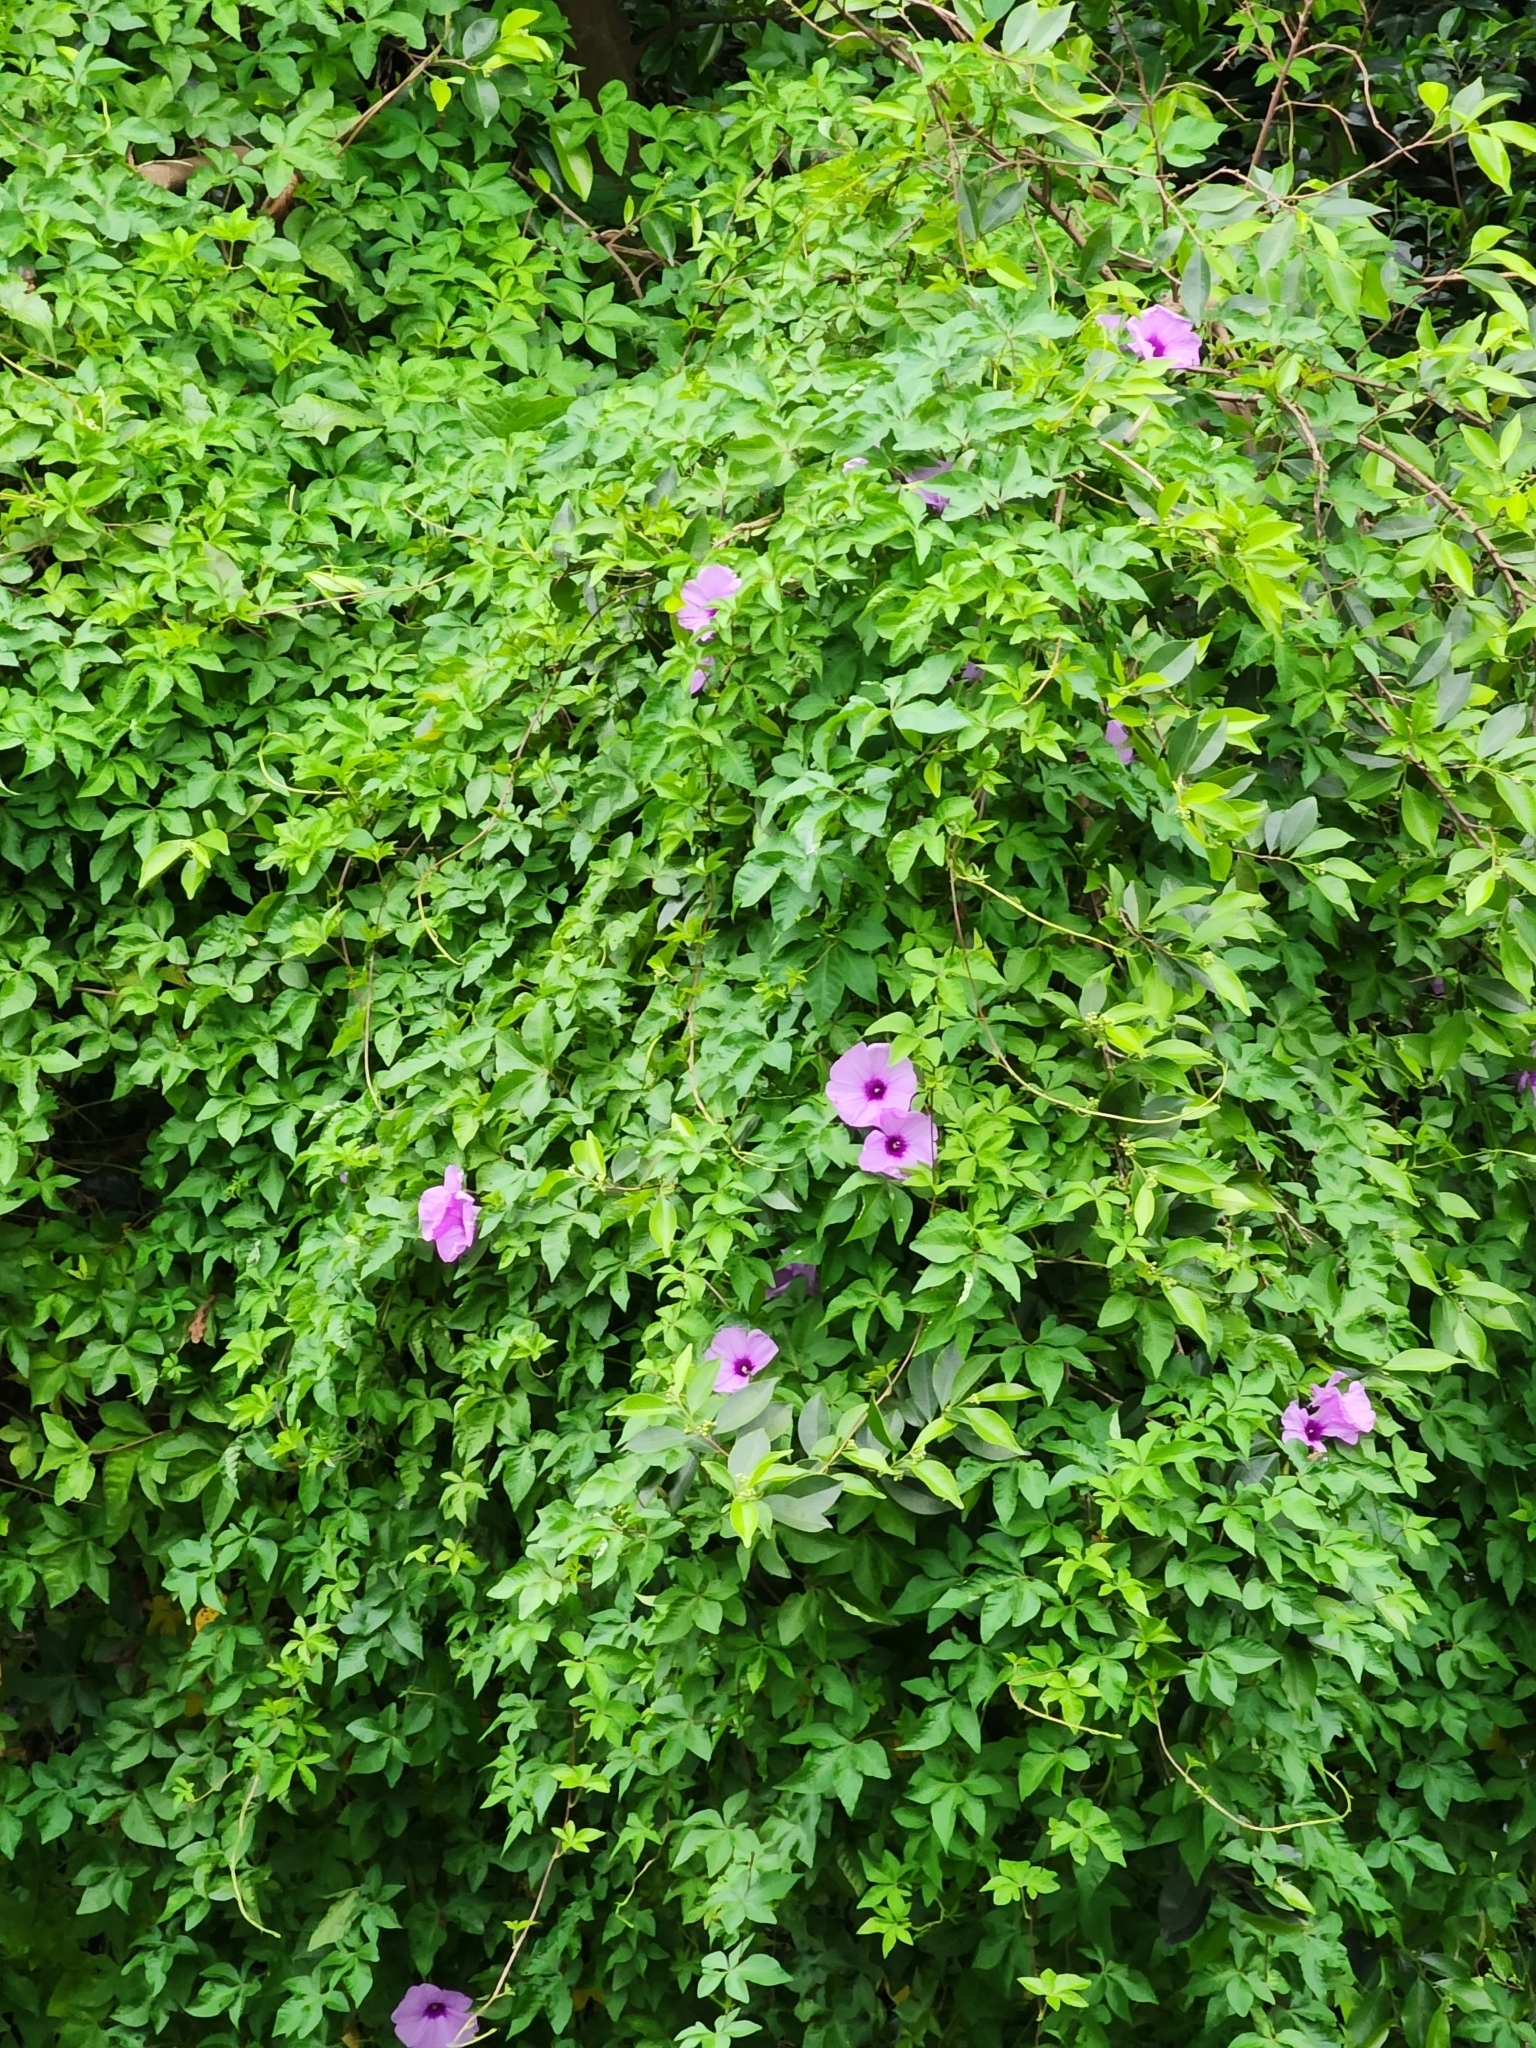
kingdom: Plantae
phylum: Tracheophyta
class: Magnoliopsida
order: Solanales
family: Convolvulaceae
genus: Ipomoea
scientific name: Ipomoea cairica
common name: Mile a minute vine
